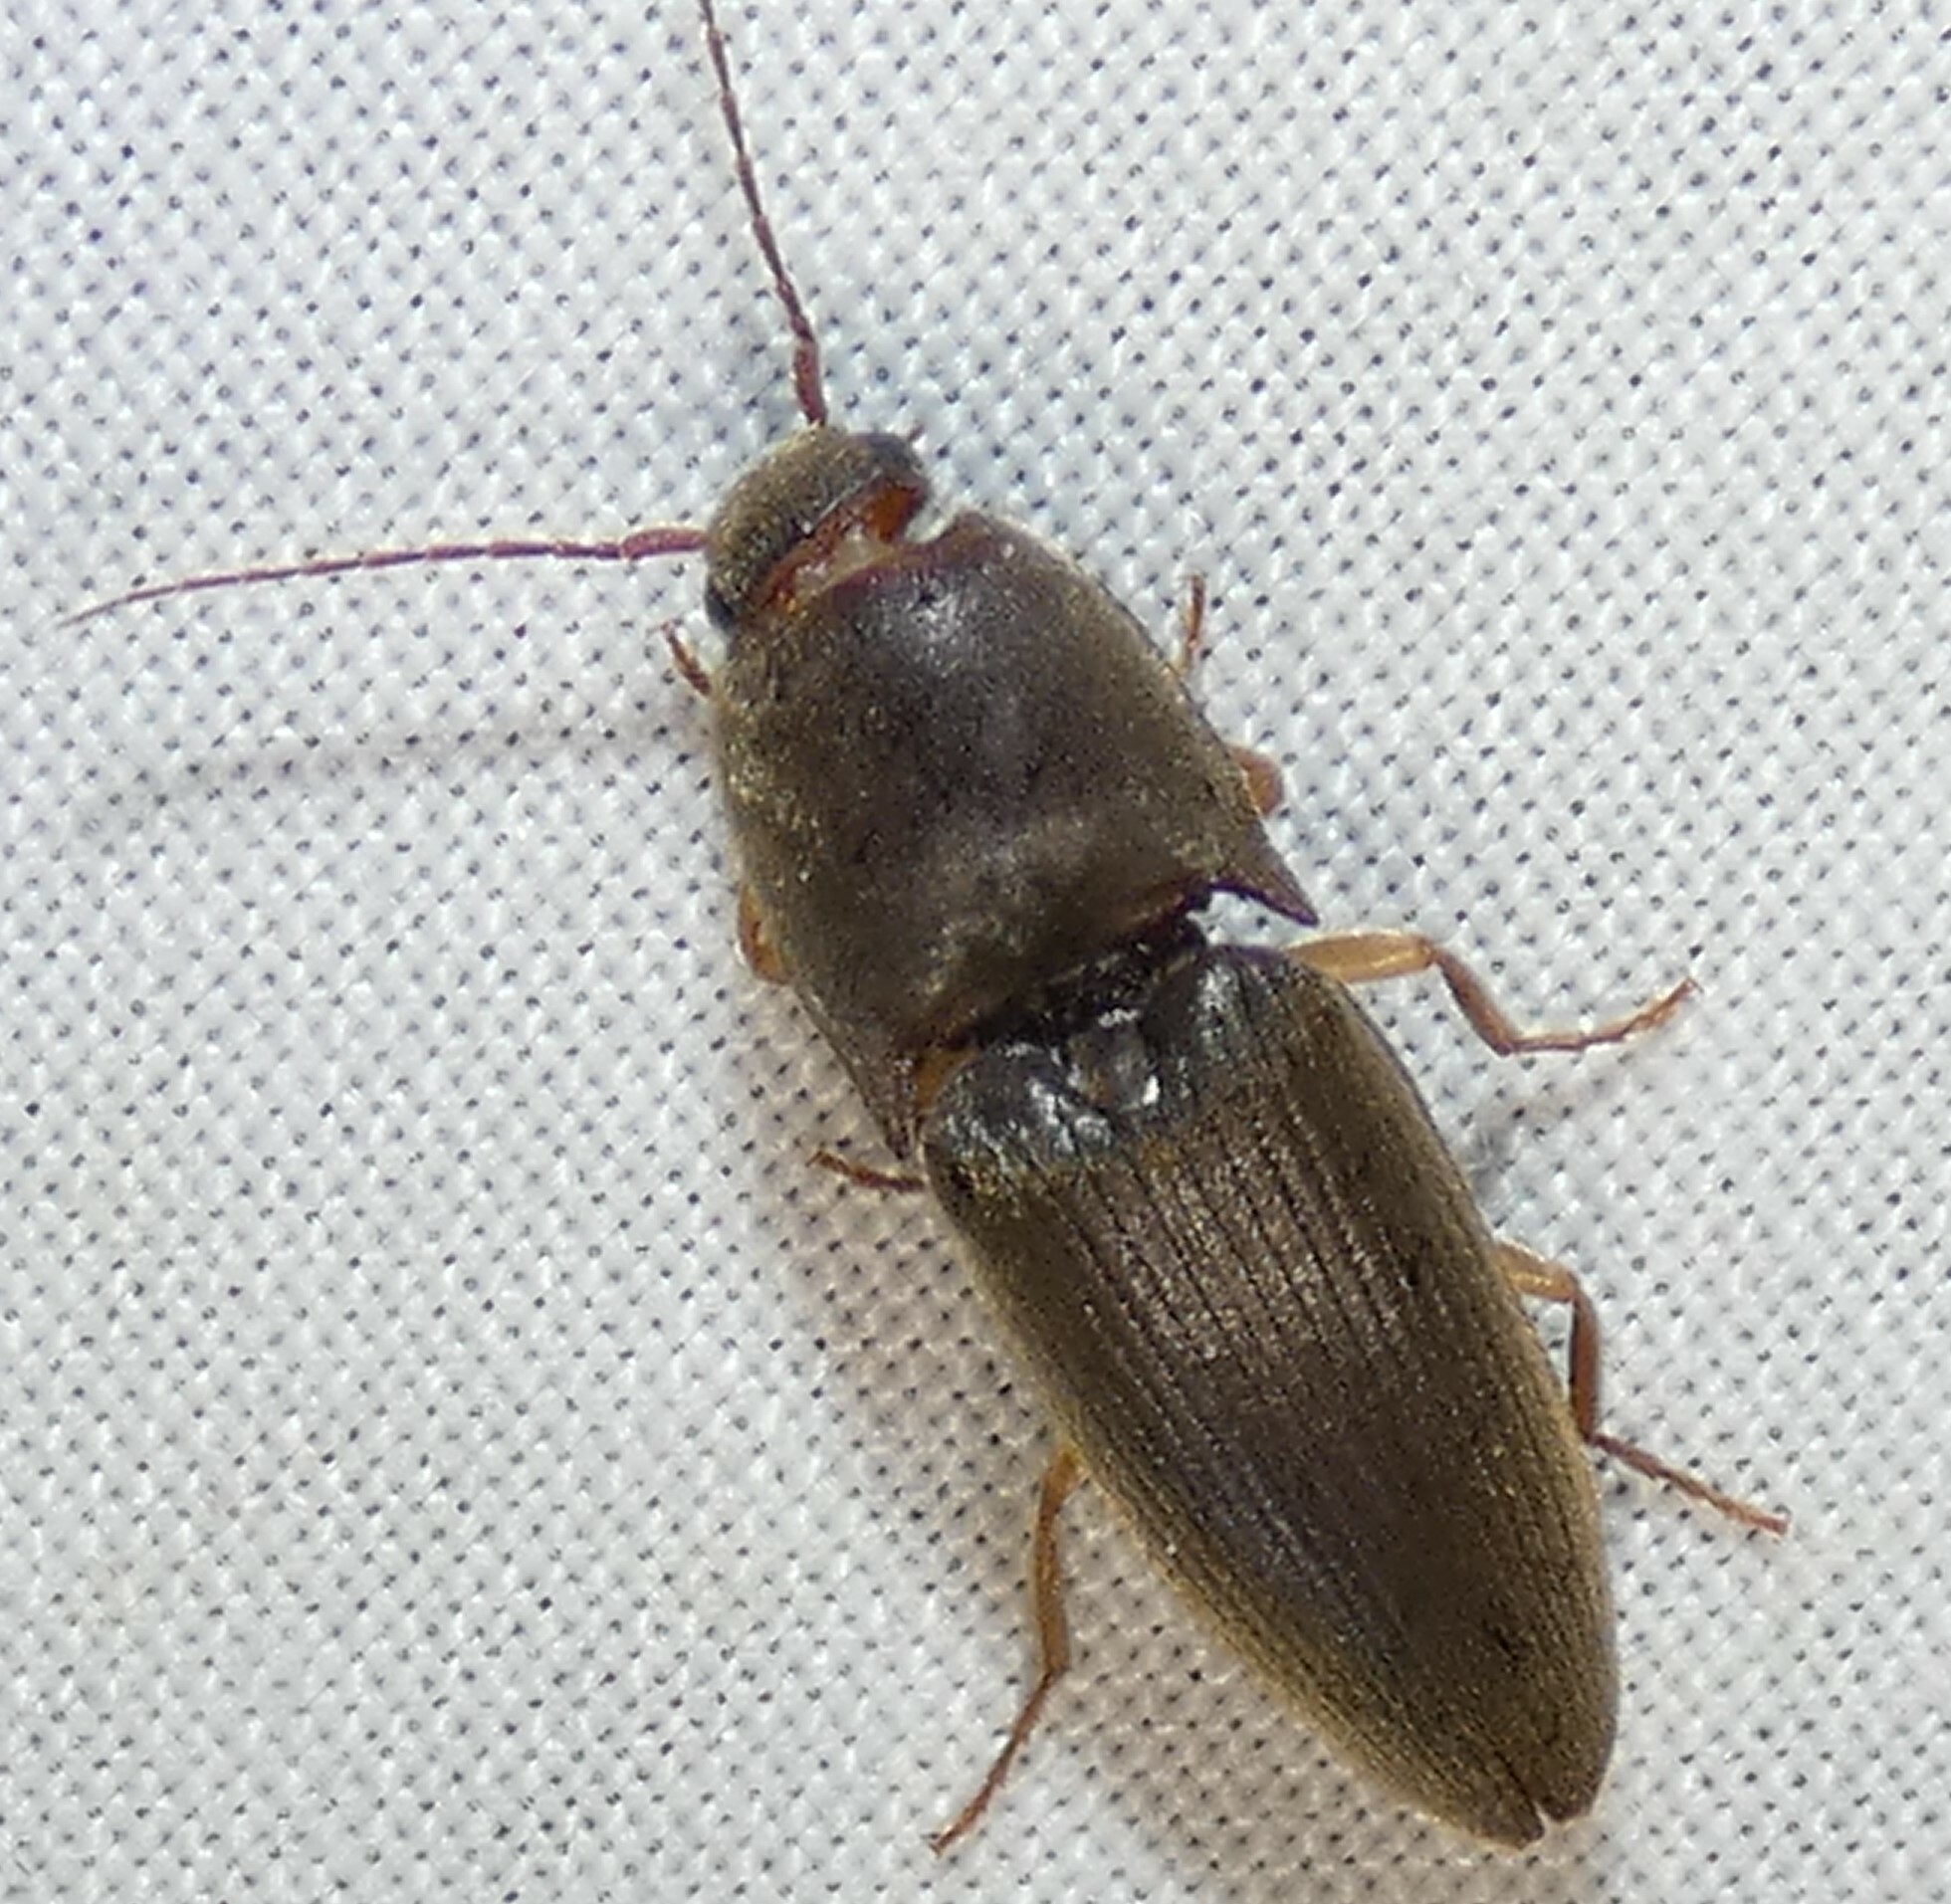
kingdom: Animalia
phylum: Arthropoda
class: Insecta
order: Coleoptera
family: Elateridae
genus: Conoderus
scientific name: Conoderus exsul
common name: Click beetle
